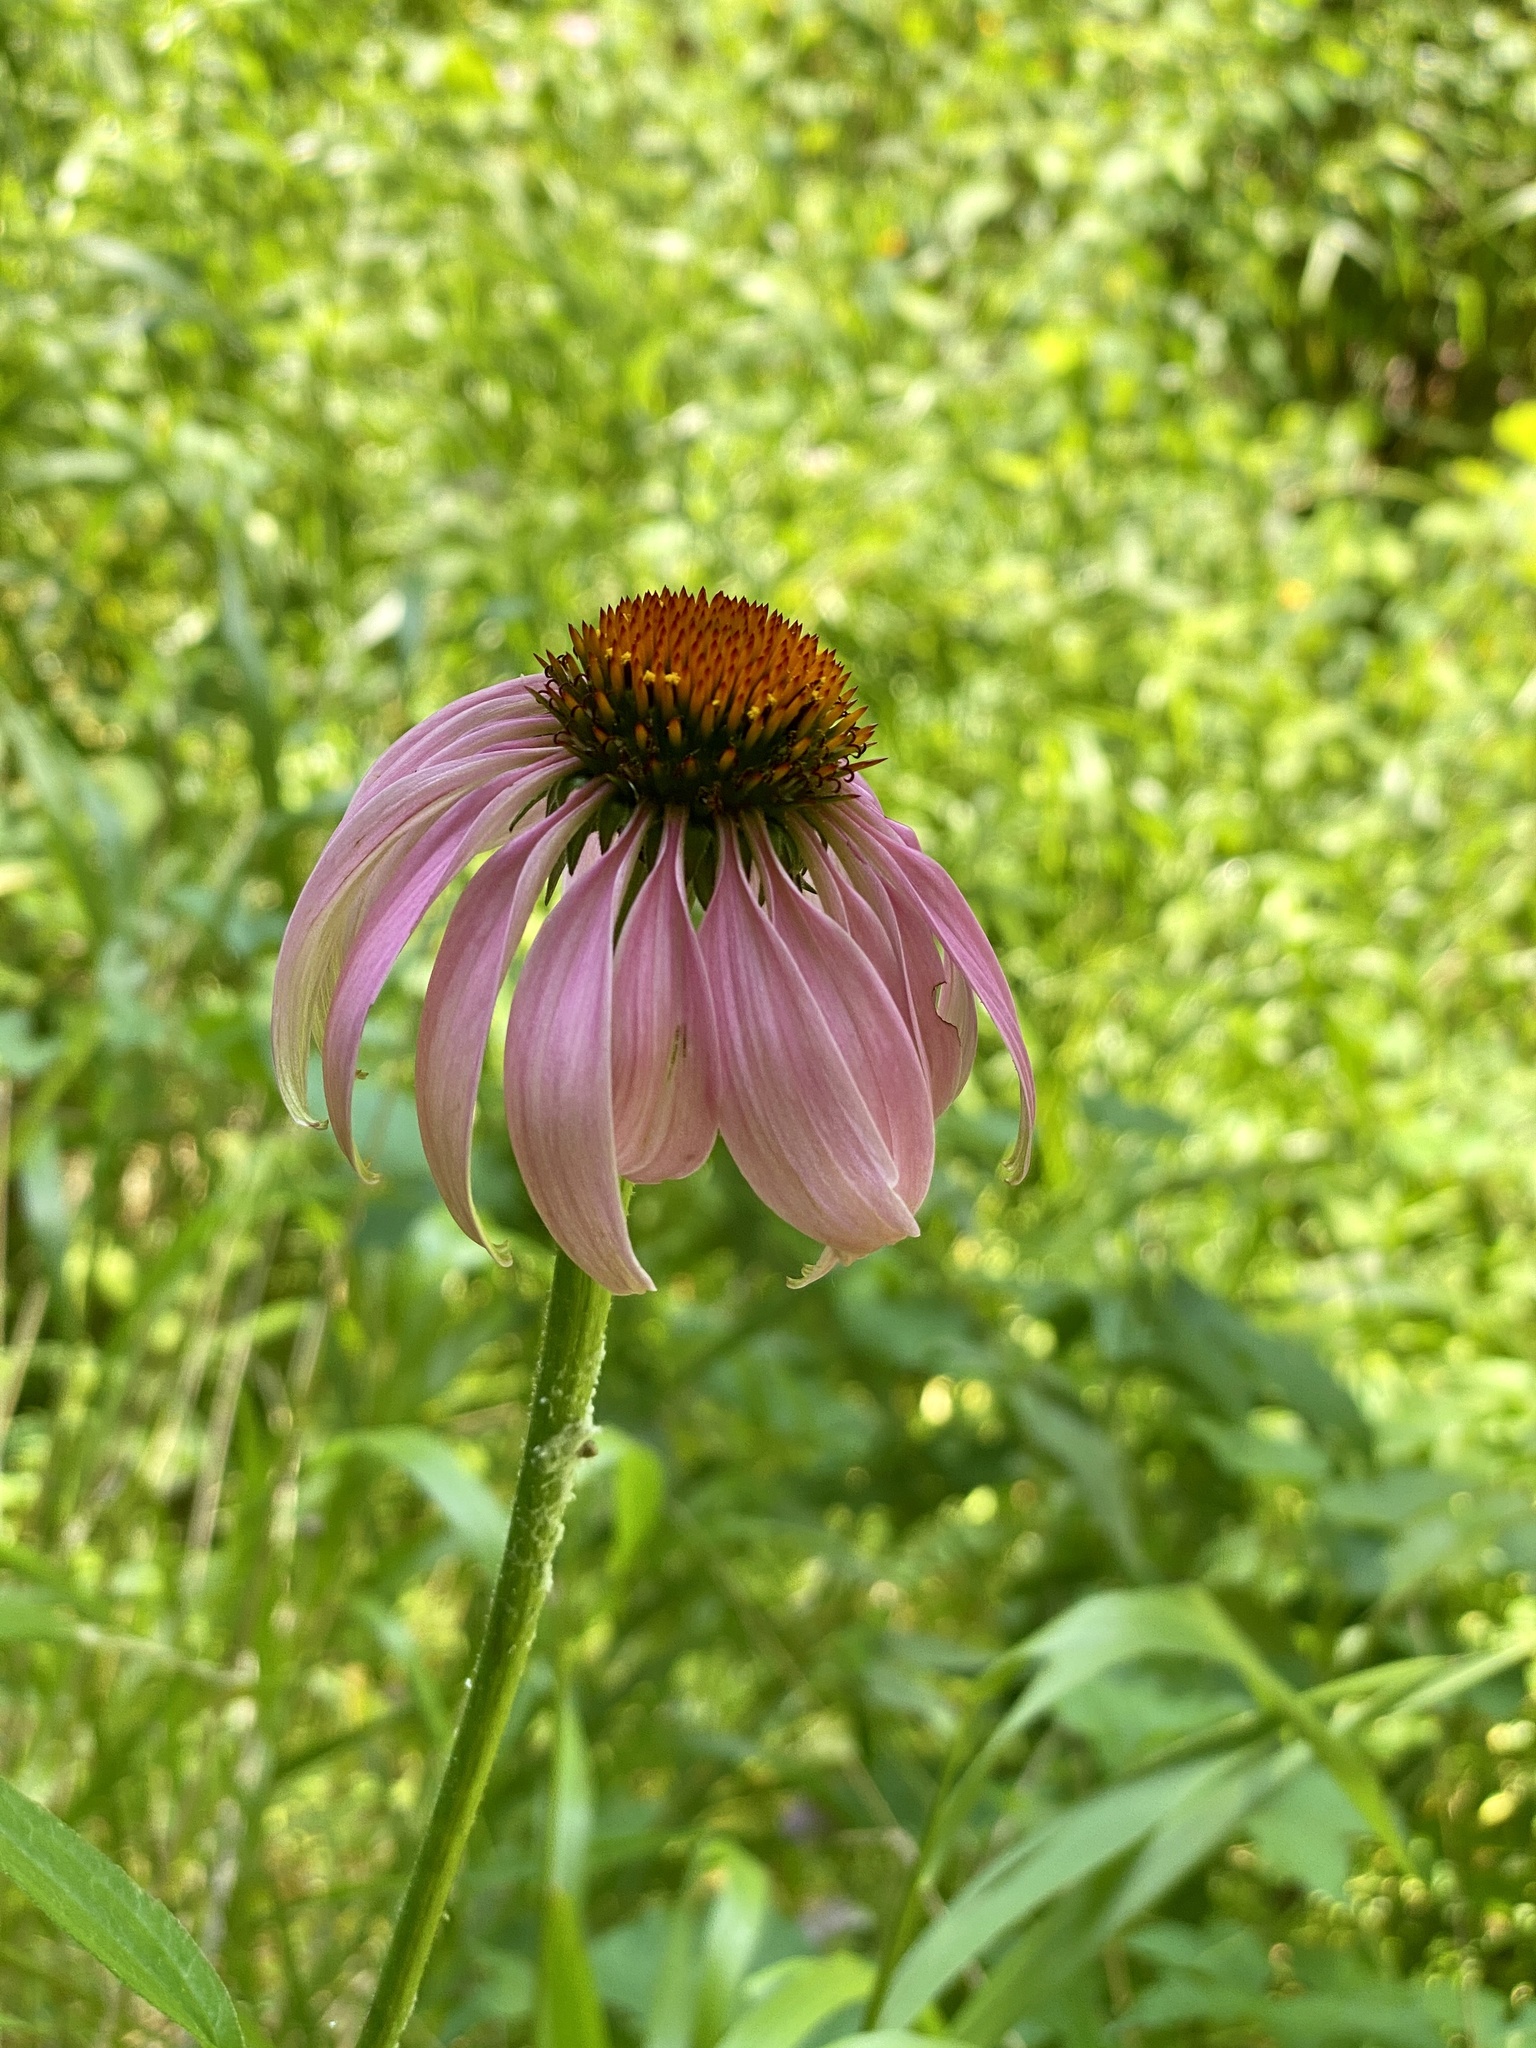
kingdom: Plantae
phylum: Tracheophyta
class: Magnoliopsida
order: Asterales
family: Asteraceae
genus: Echinacea
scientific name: Echinacea purpurea
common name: Broad-leaved purple coneflower
